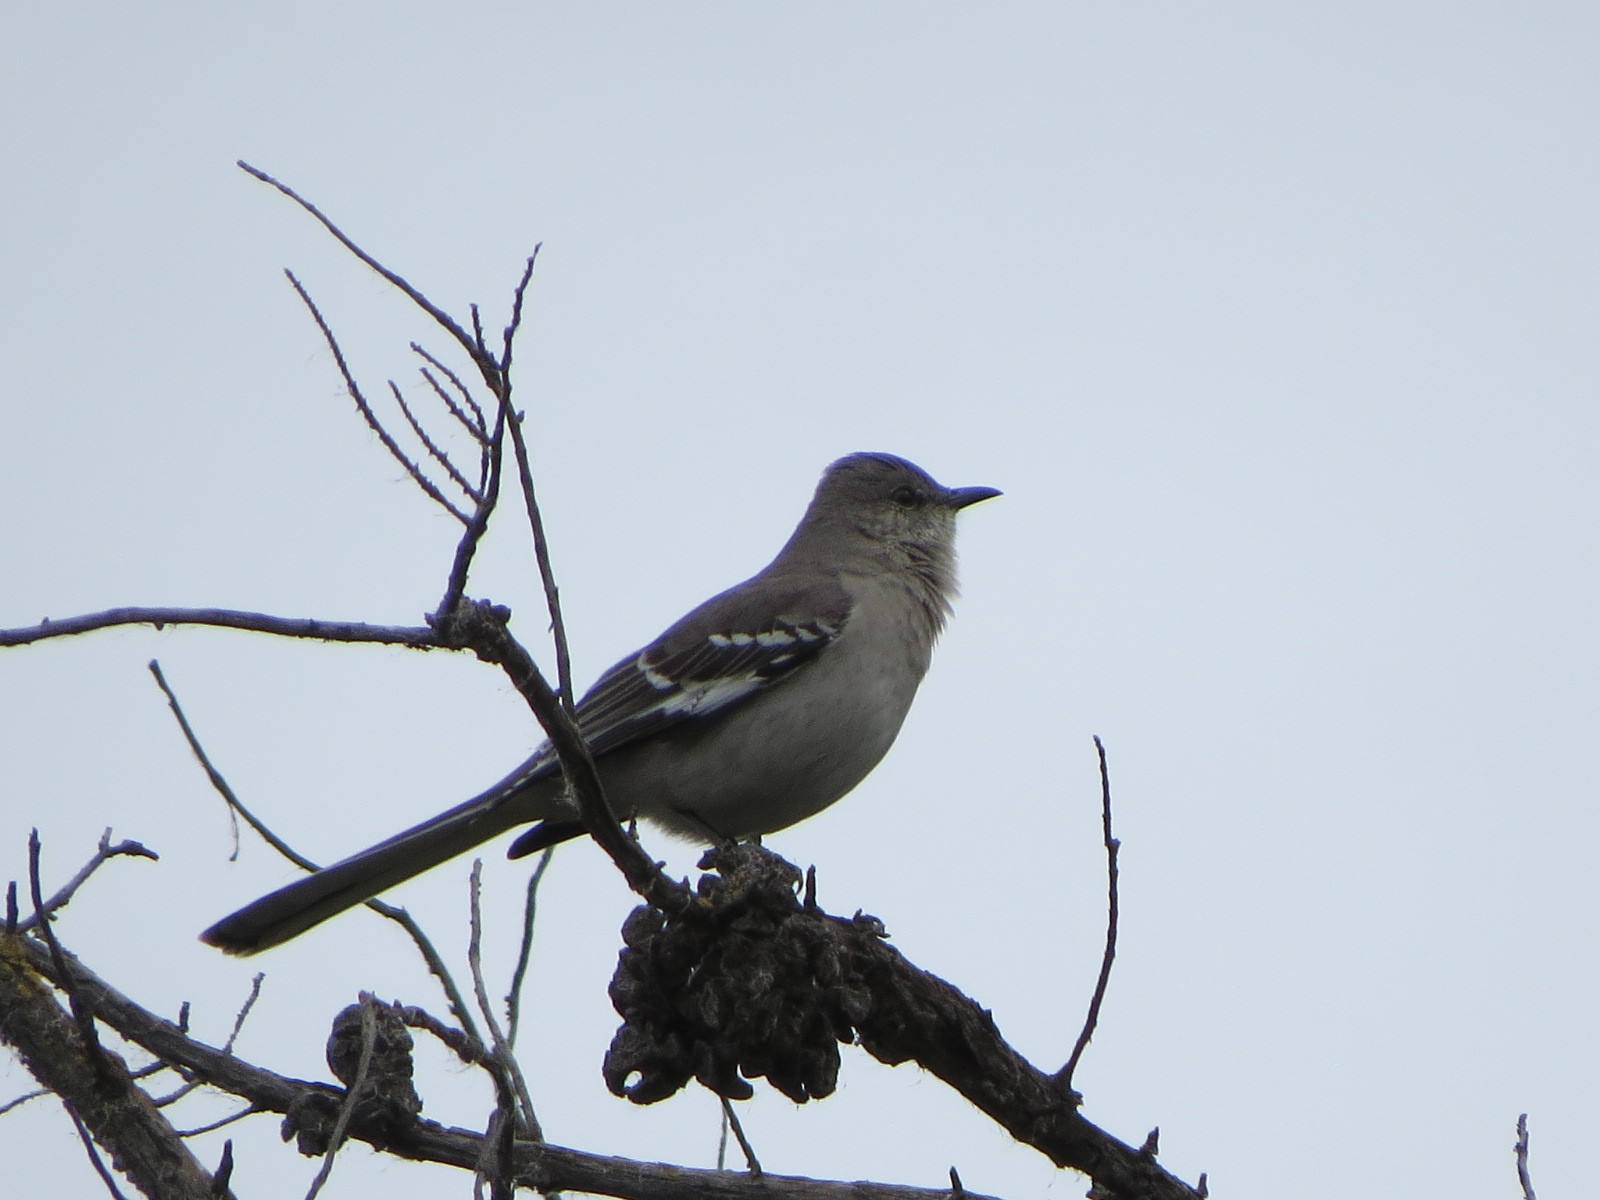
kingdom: Animalia
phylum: Chordata
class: Aves
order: Passeriformes
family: Mimidae
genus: Mimus
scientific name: Mimus polyglottos
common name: Northern mockingbird
